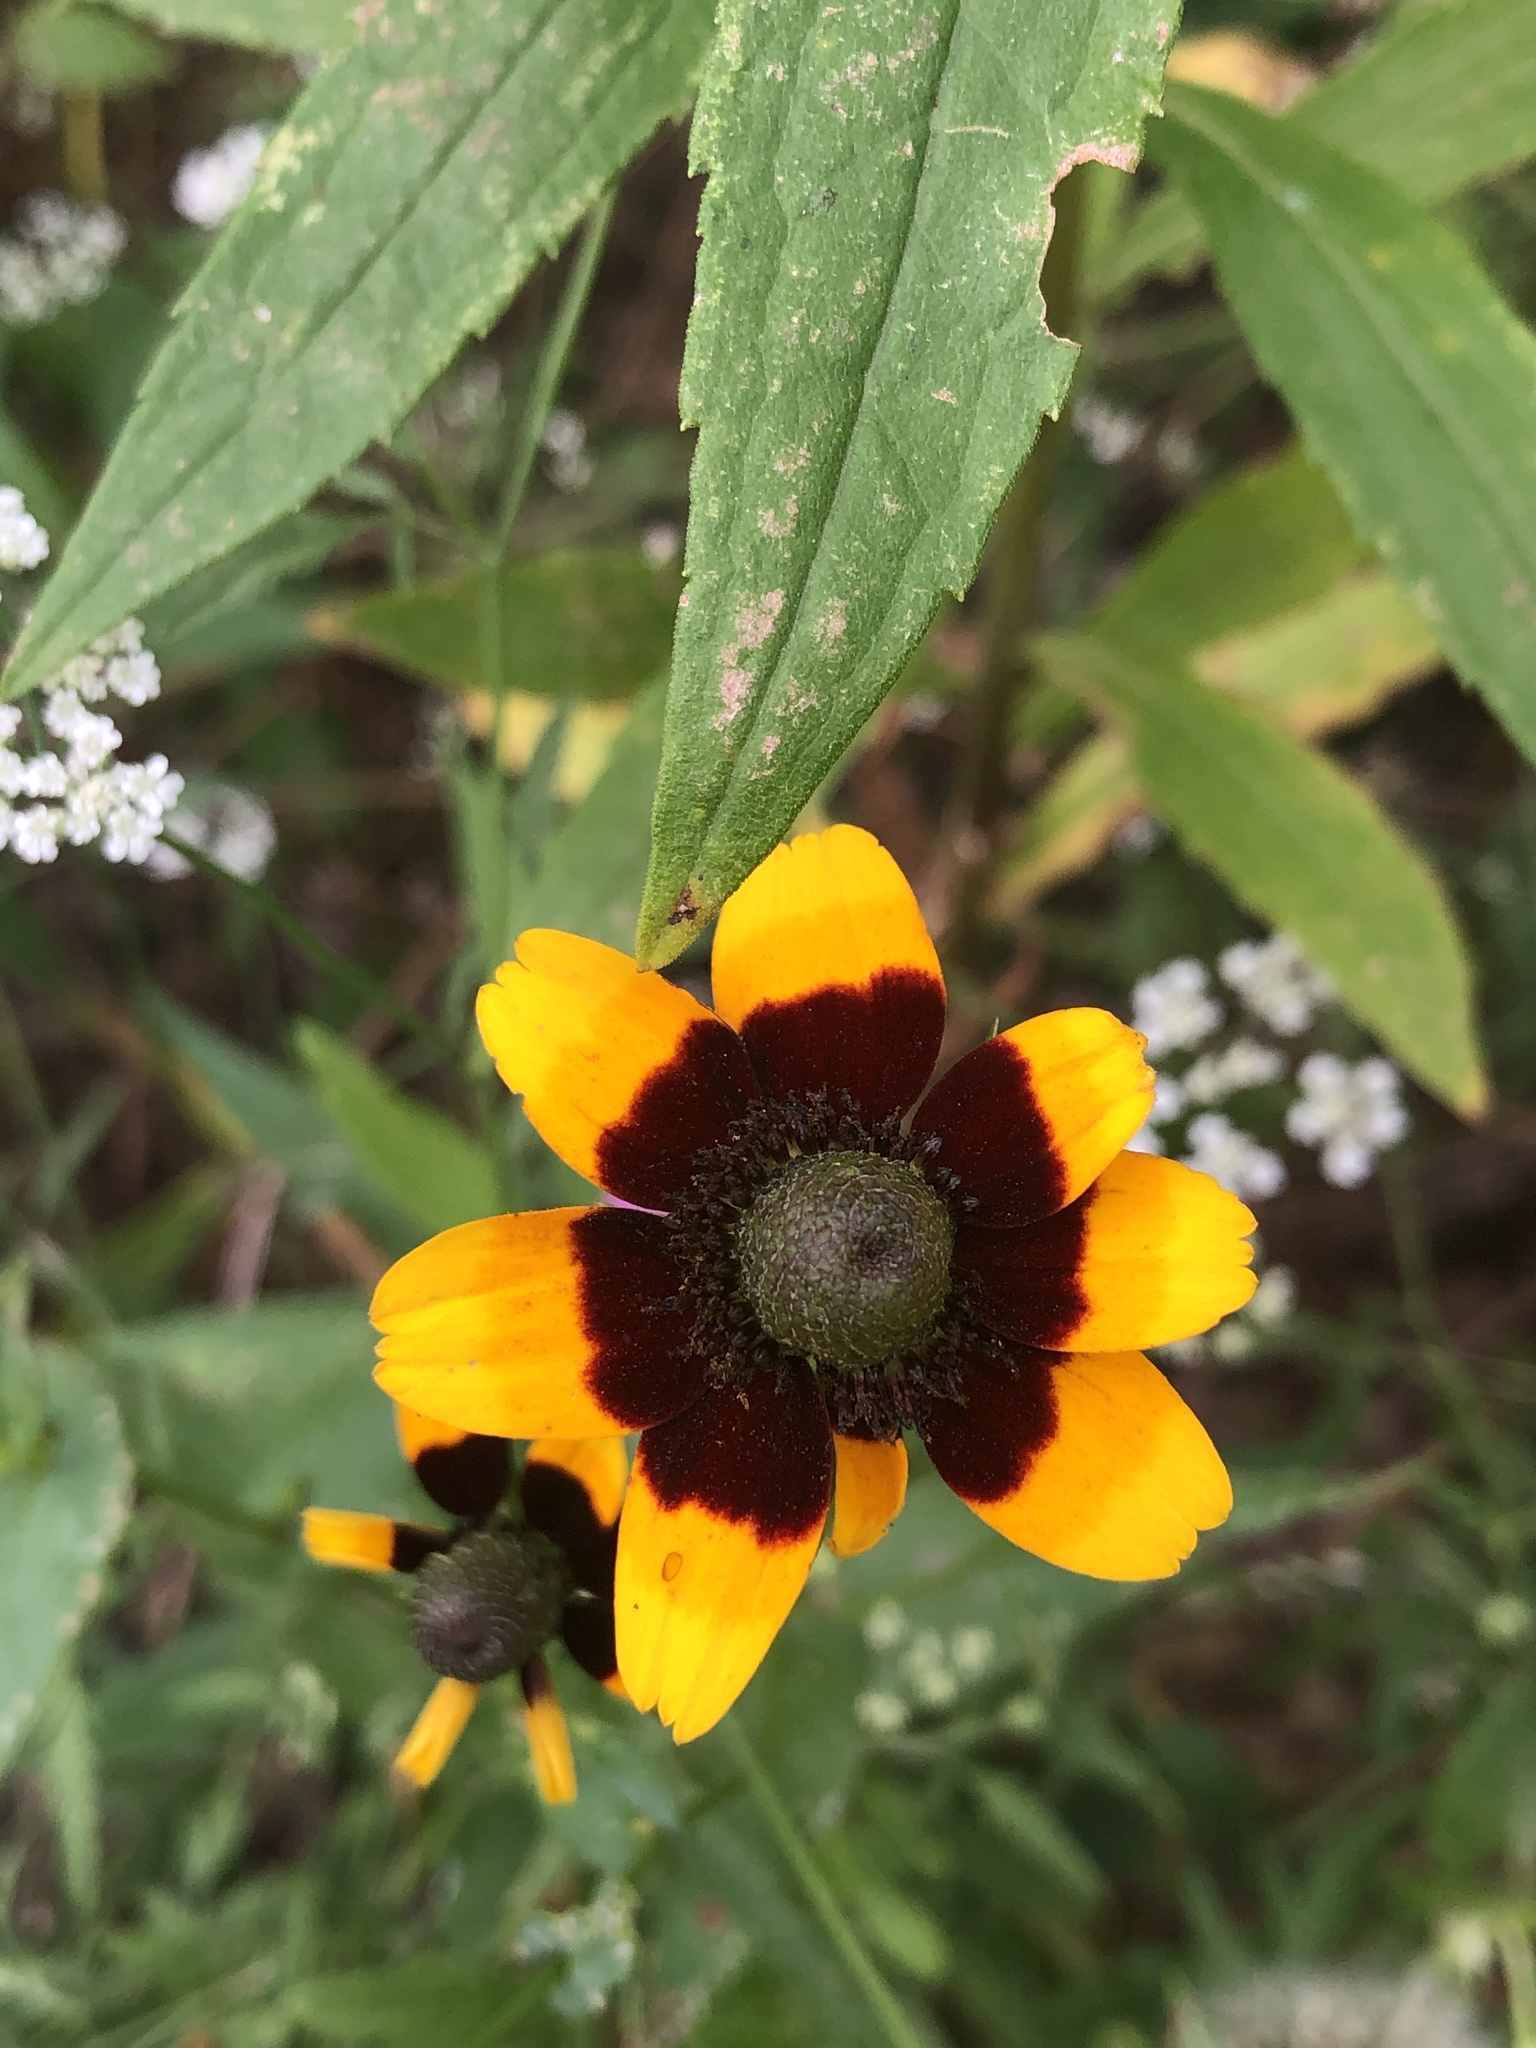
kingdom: Plantae
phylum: Tracheophyta
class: Magnoliopsida
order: Asterales
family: Asteraceae
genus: Rudbeckia
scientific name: Rudbeckia amplexicaulis
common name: Clasping-leaf coneflower
